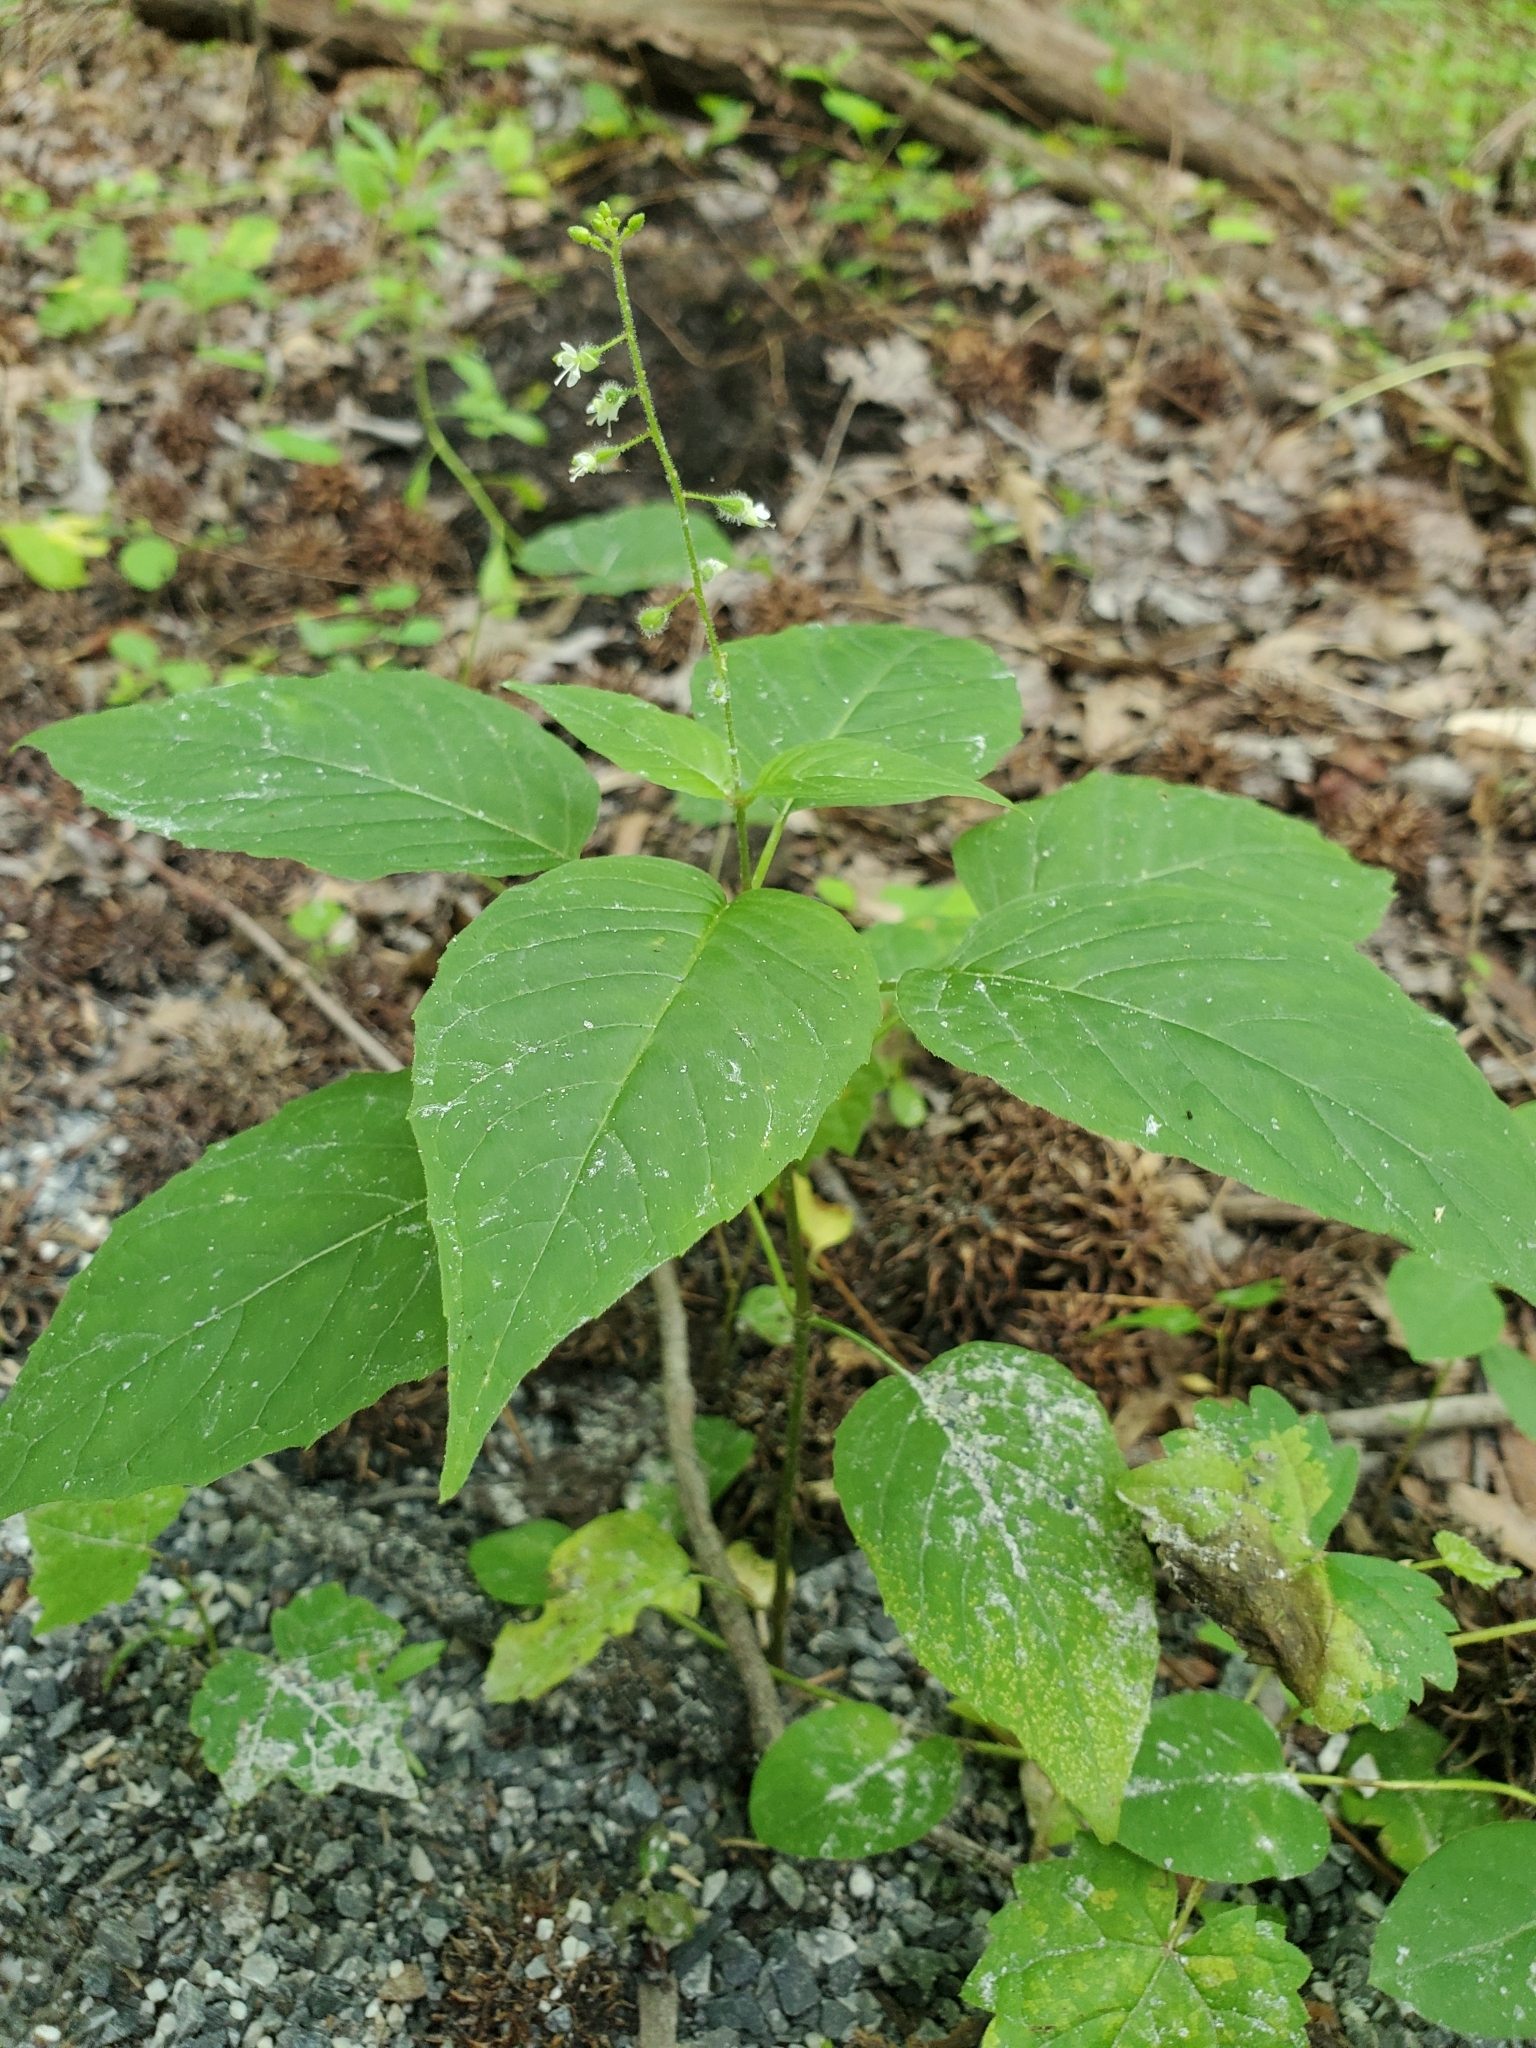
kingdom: Plantae
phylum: Tracheophyta
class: Magnoliopsida
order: Myrtales
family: Onagraceae
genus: Circaea
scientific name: Circaea canadensis
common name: Broad-leaved enchanter's nightshade
